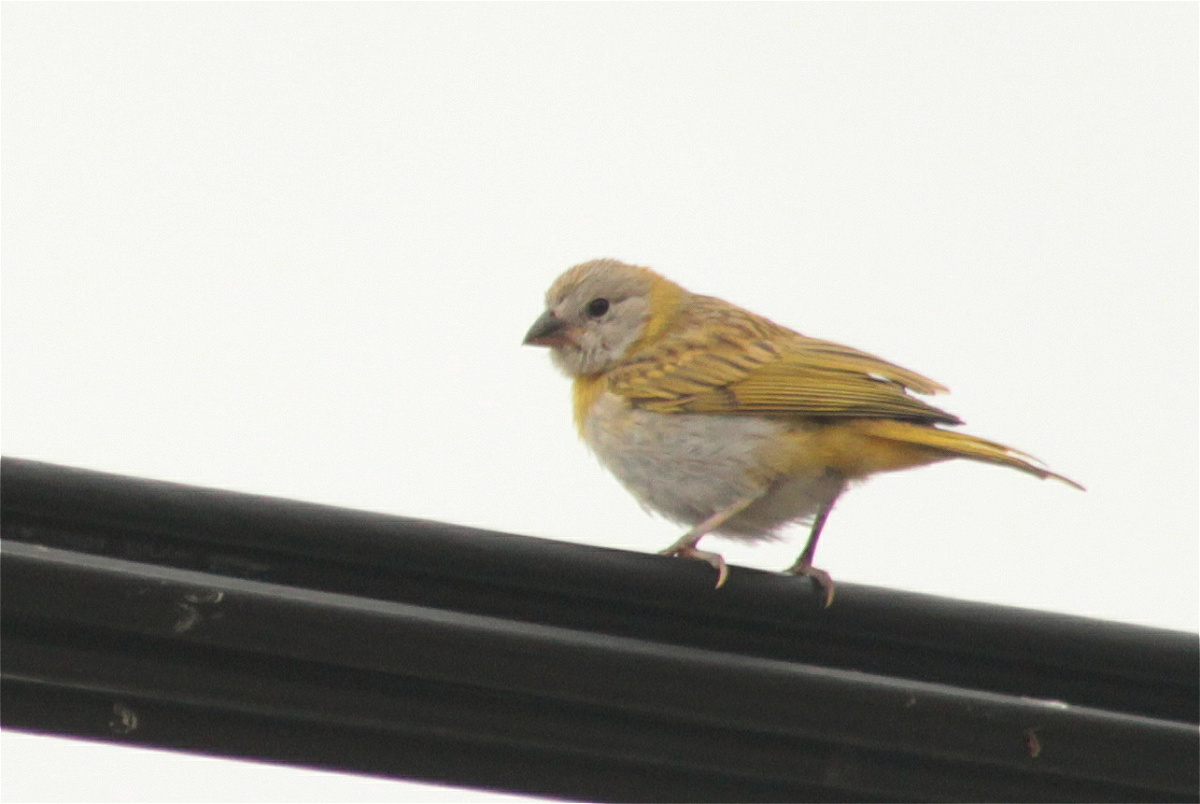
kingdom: Animalia
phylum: Chordata
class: Aves
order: Passeriformes
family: Thraupidae
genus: Sicalis
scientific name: Sicalis flaveola
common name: Saffron finch
